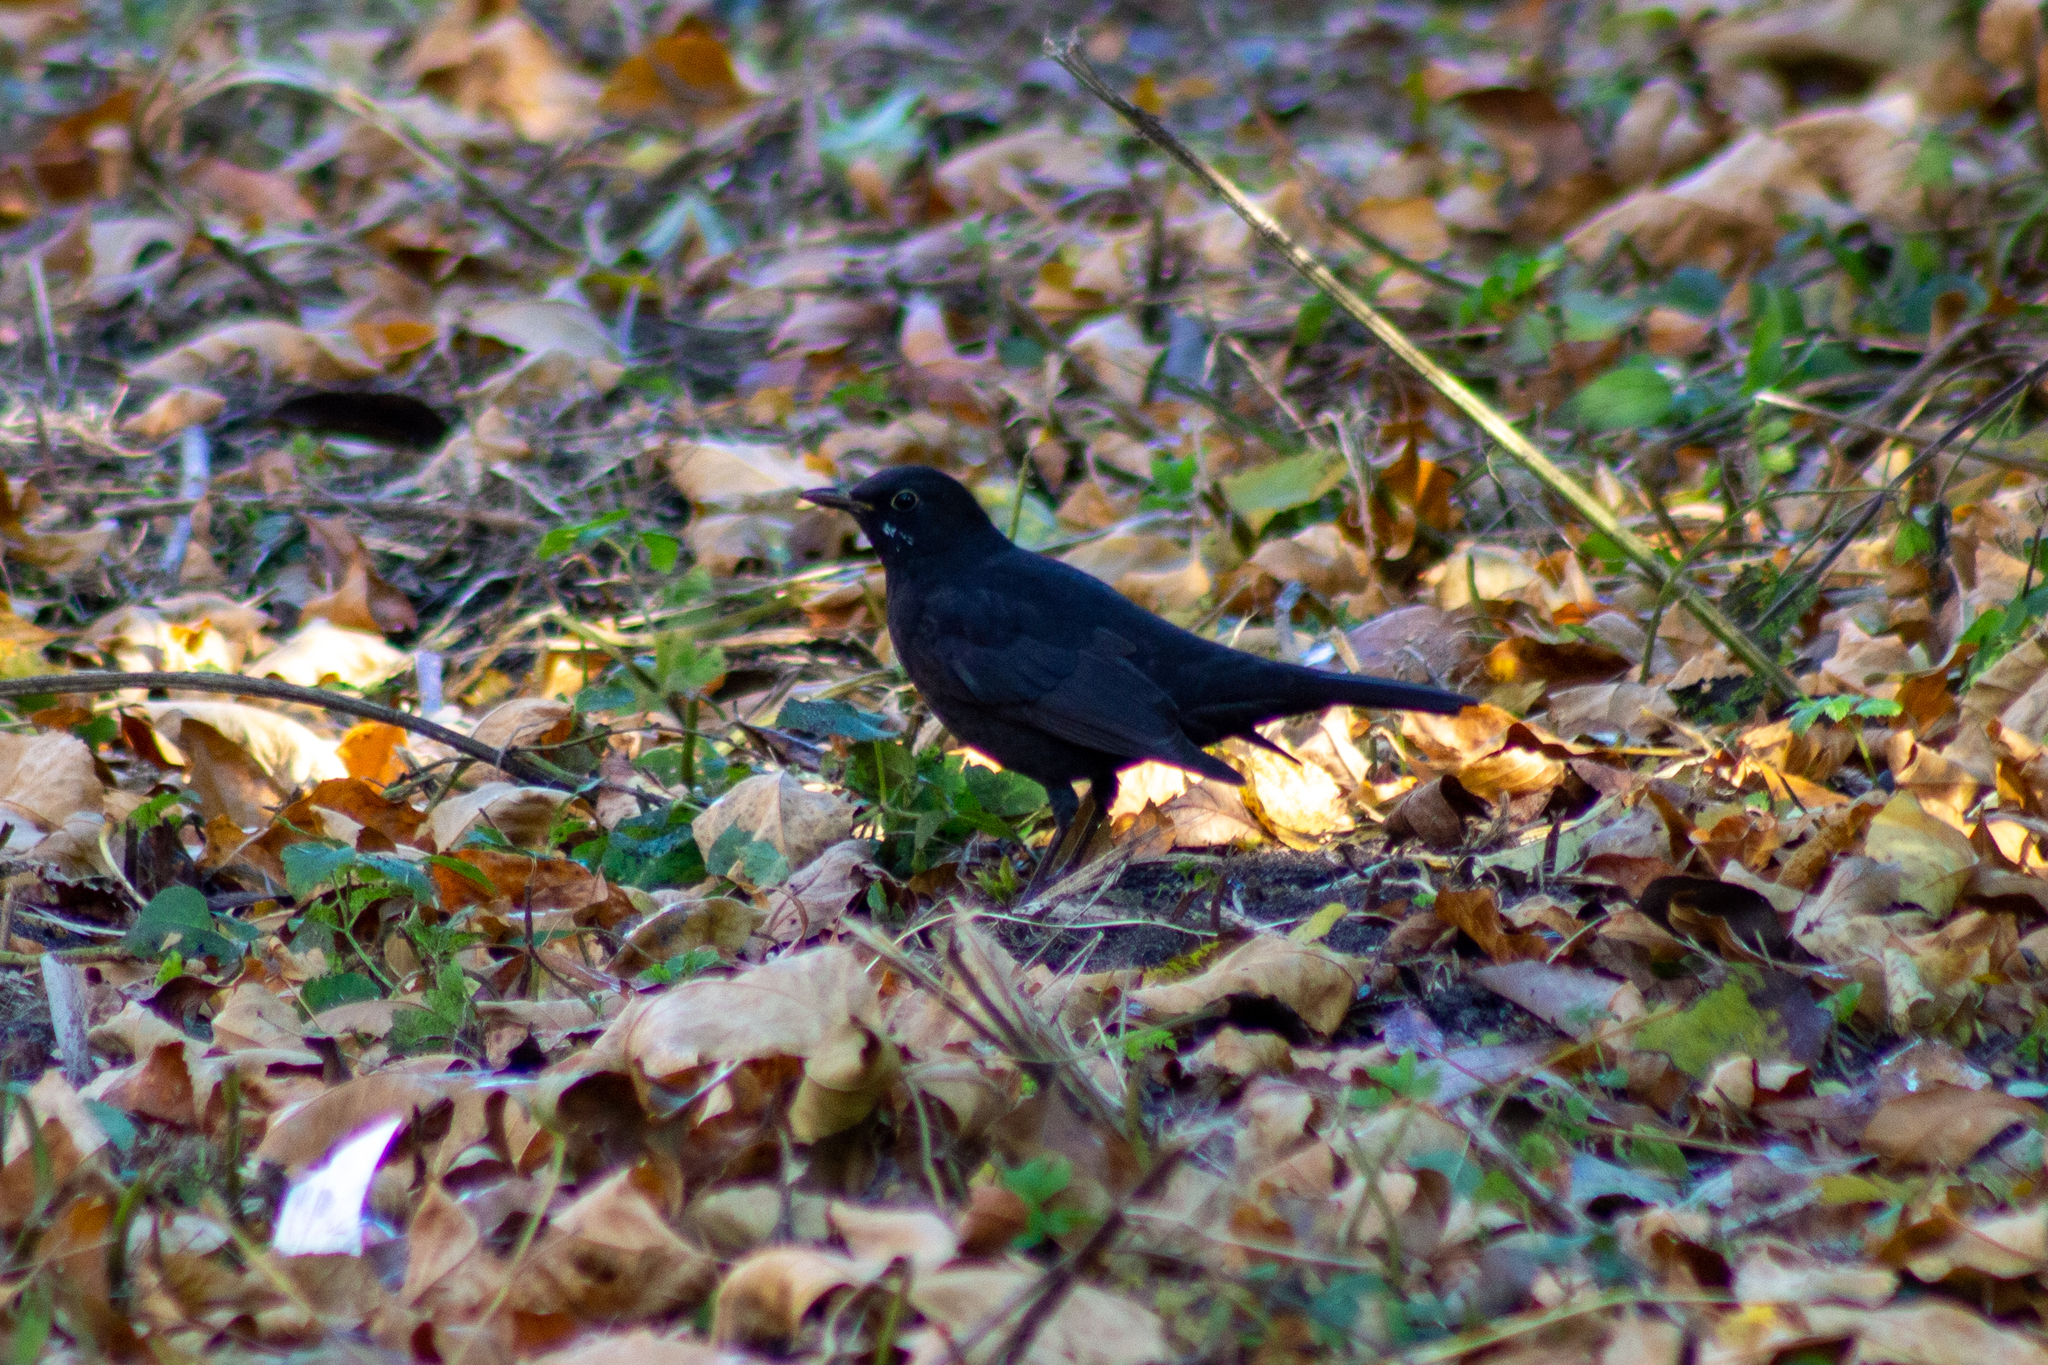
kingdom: Animalia
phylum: Chordata
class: Aves
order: Passeriformes
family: Turdidae
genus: Turdus
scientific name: Turdus merula
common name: Common blackbird
